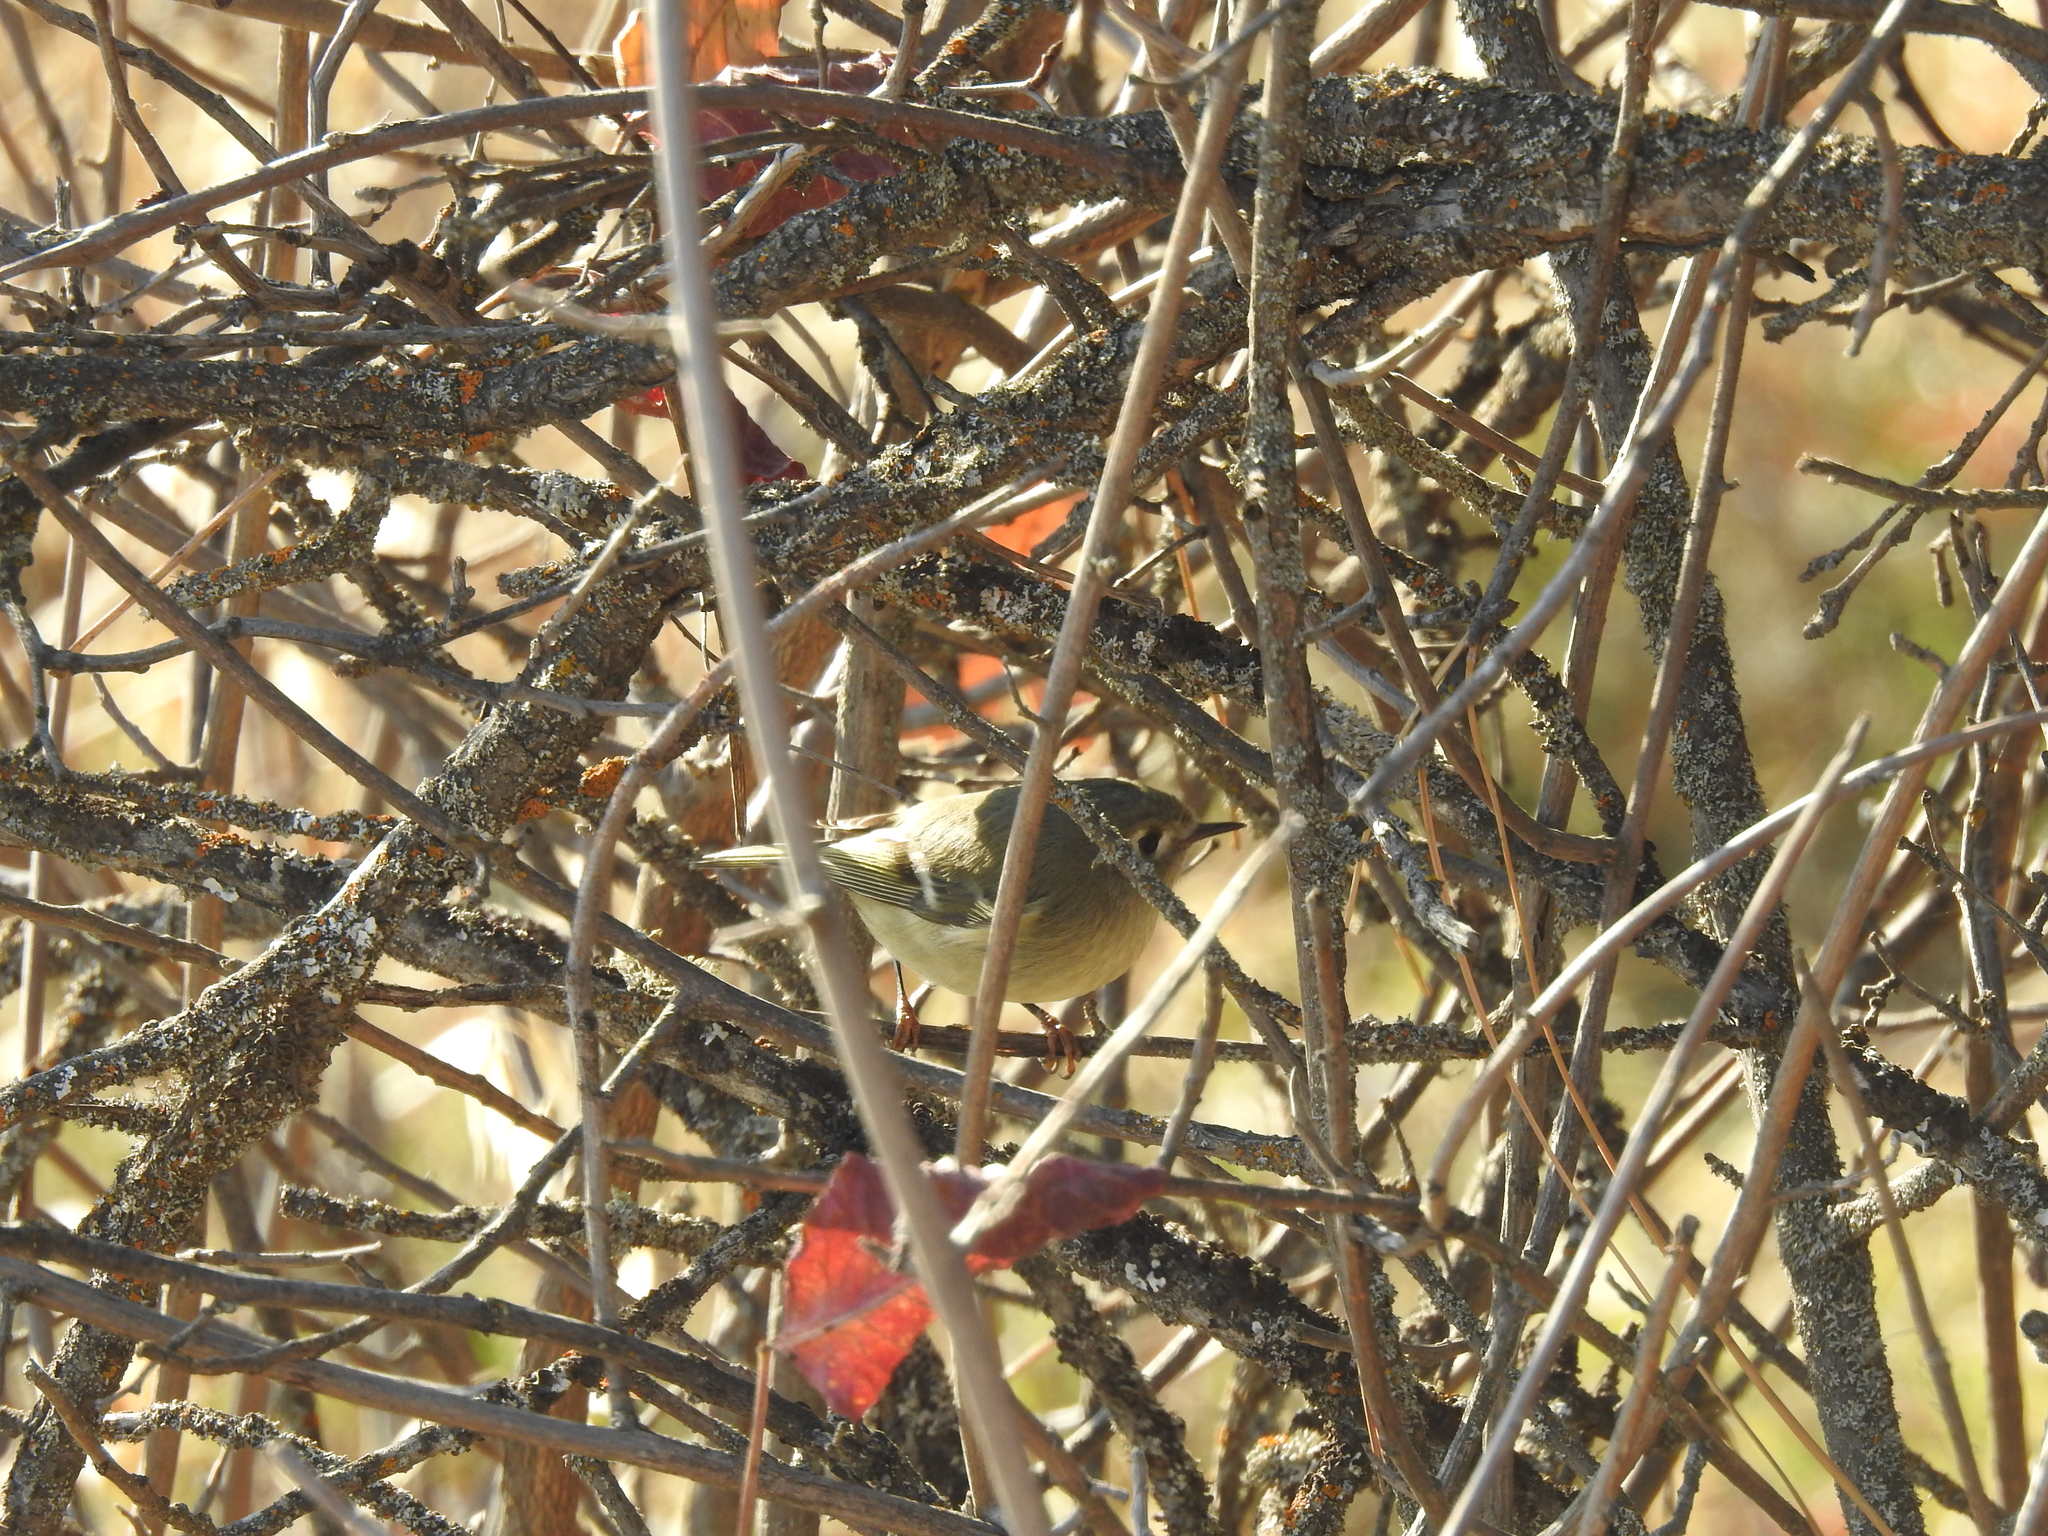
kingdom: Animalia
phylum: Chordata
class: Aves
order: Passeriformes
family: Regulidae
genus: Regulus
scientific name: Regulus calendula
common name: Ruby-crowned kinglet
